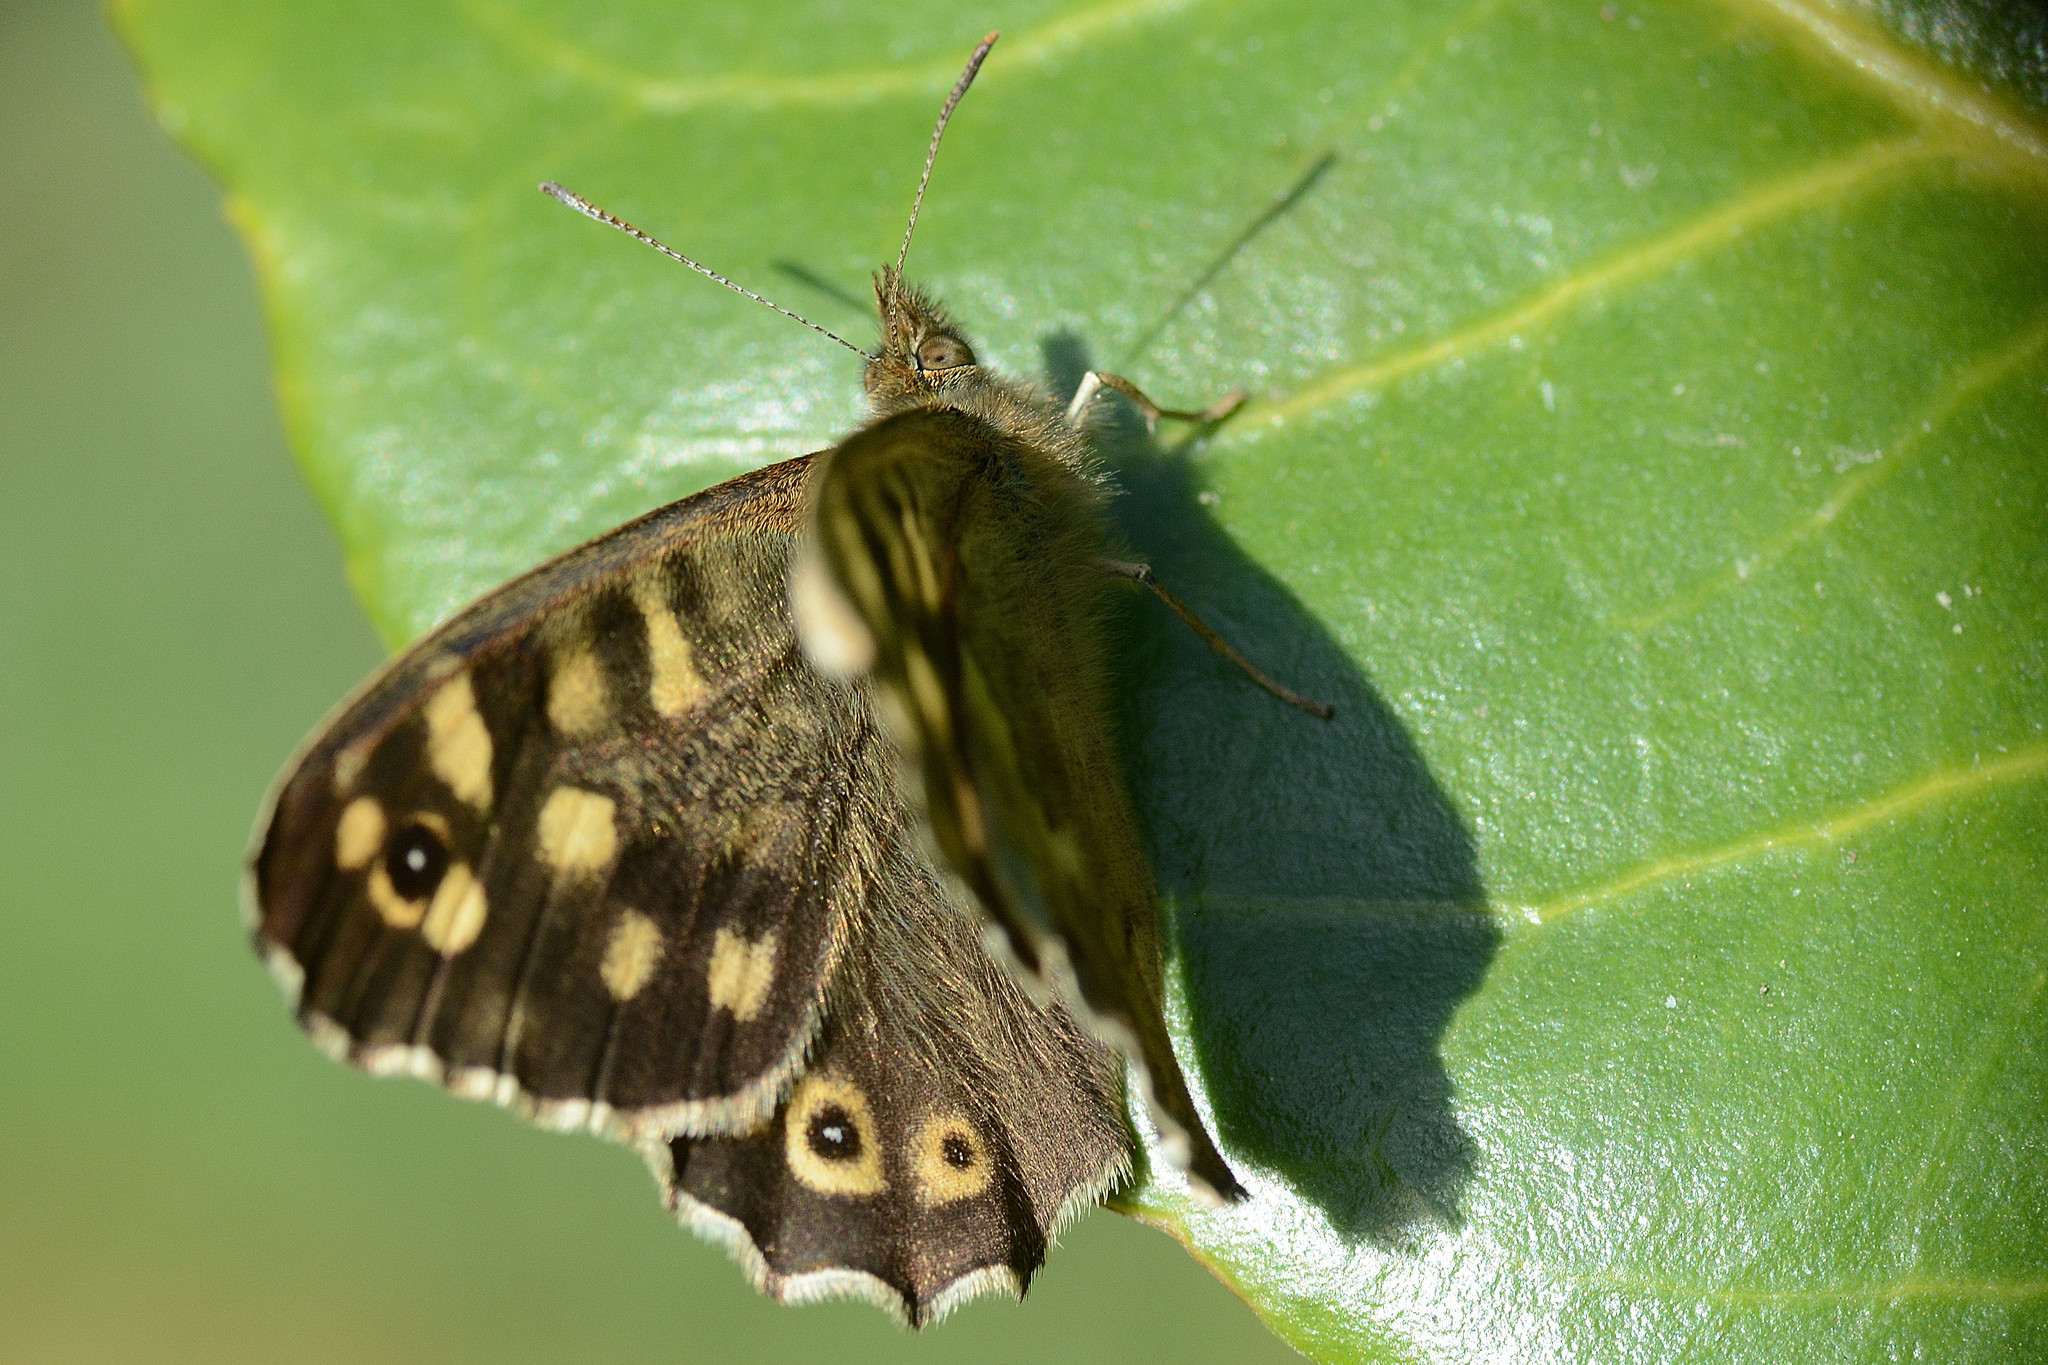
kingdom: Animalia
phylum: Arthropoda
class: Insecta
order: Lepidoptera
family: Nymphalidae
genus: Pararge
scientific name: Pararge aegeria
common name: Speckled wood
